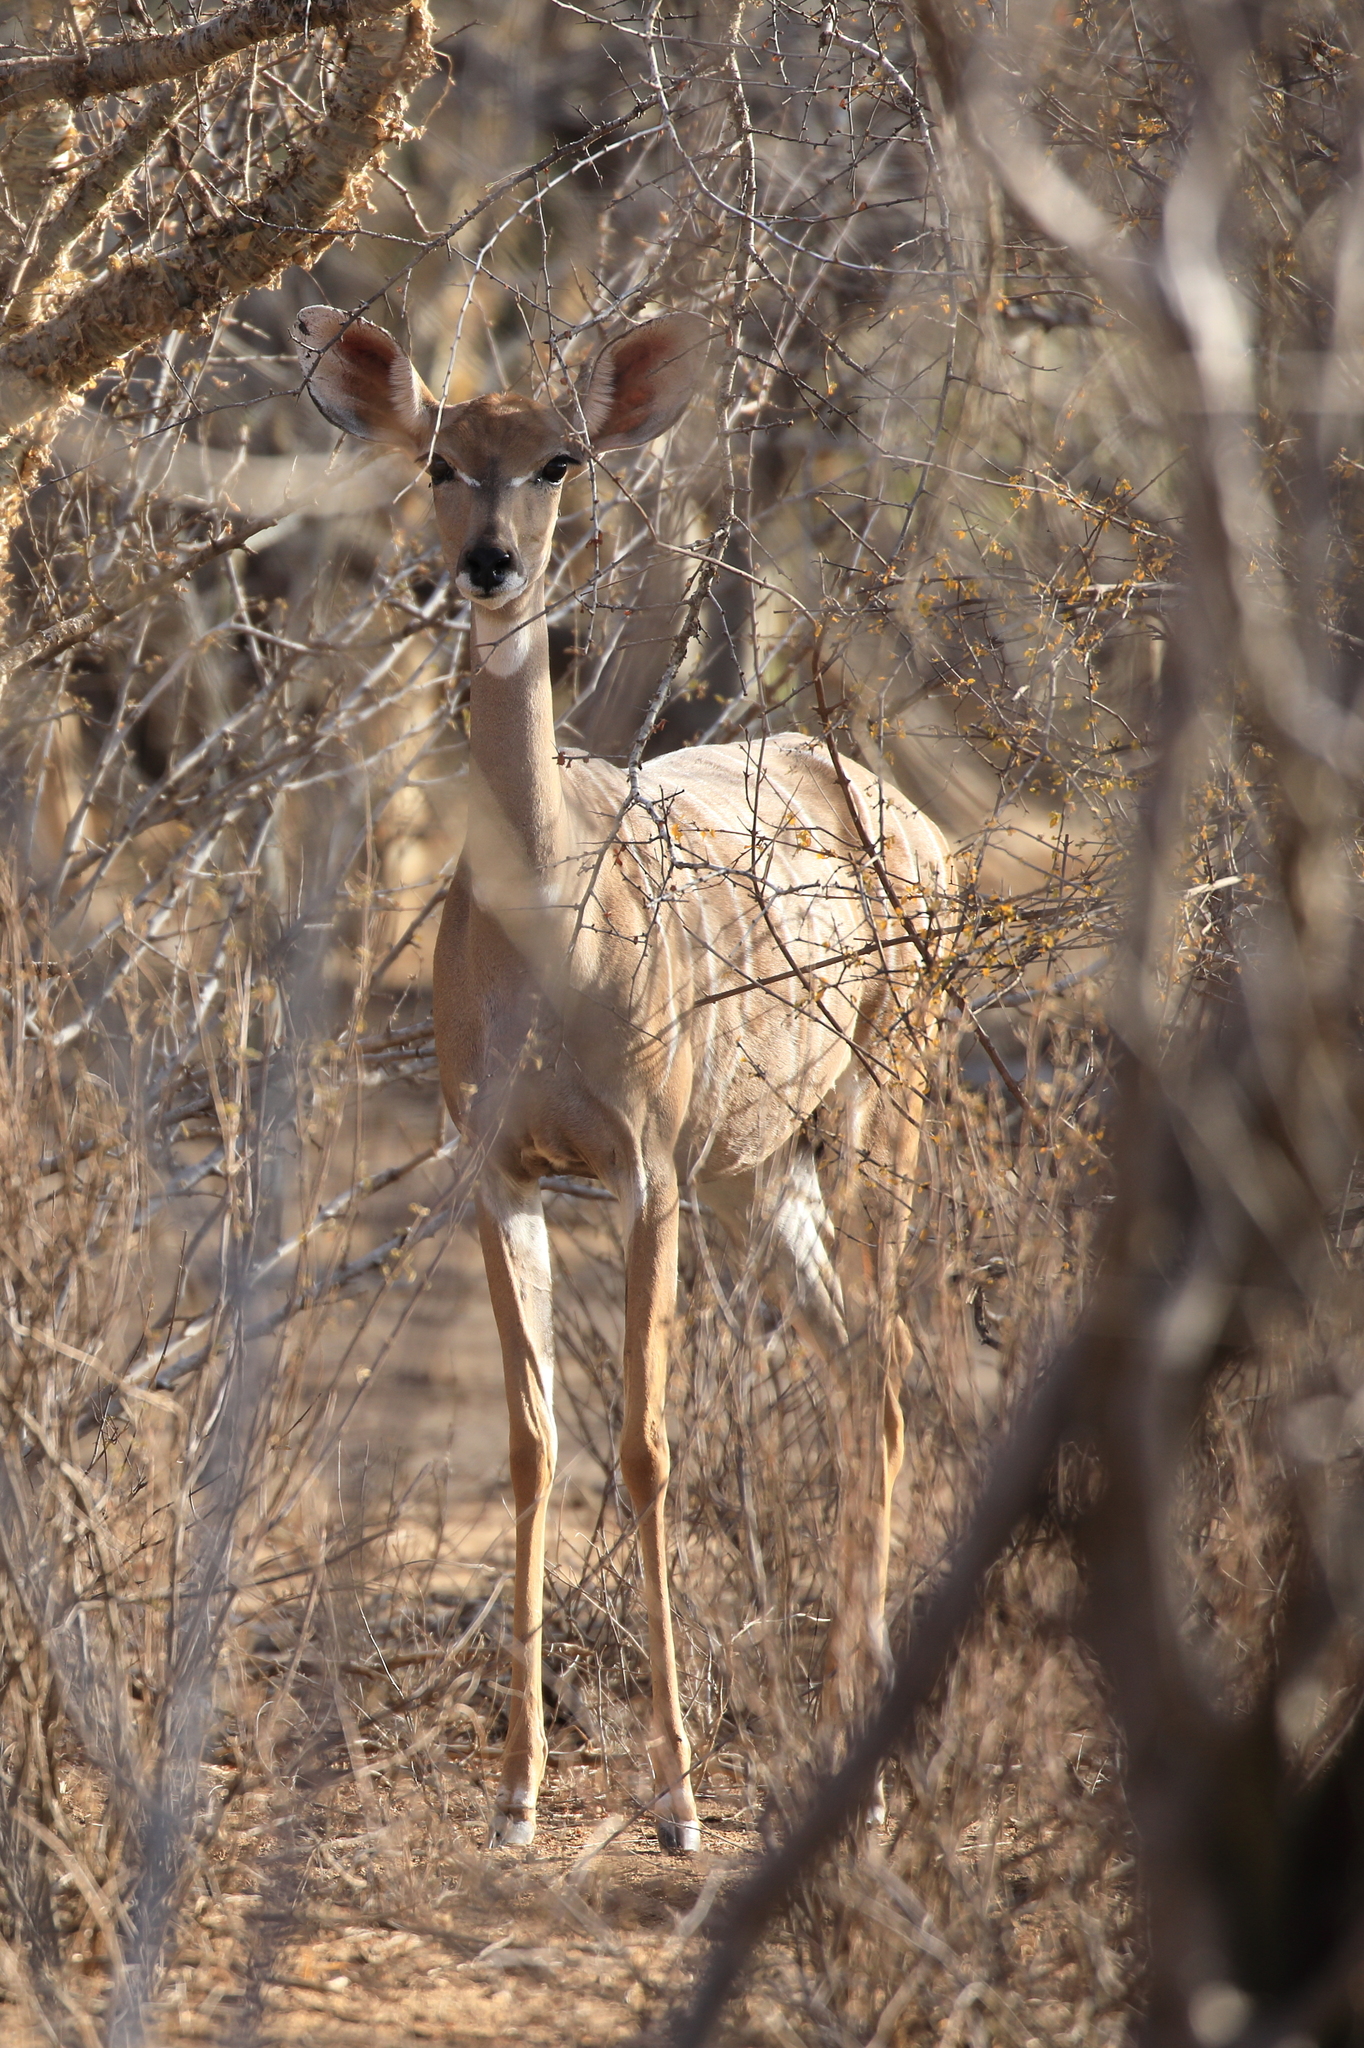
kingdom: Animalia
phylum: Chordata
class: Mammalia
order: Artiodactyla
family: Bovidae
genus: Tragelaphus
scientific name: Tragelaphus imberbis
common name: Lesser kudu
